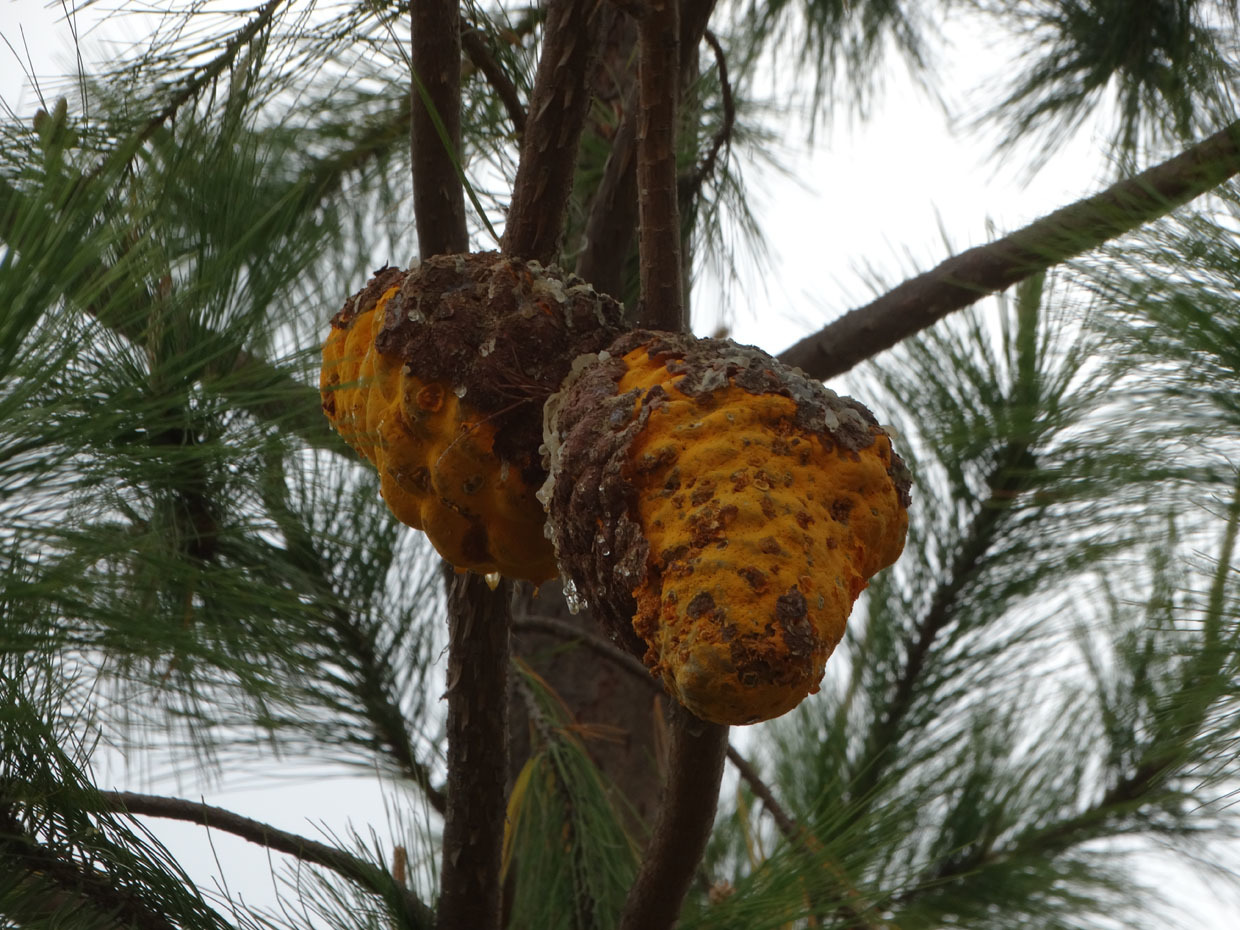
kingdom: Fungi
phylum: Basidiomycota
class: Pucciniomycetes
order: Pucciniales
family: Cronartiaceae
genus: Cronartium
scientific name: Cronartium conigenum
